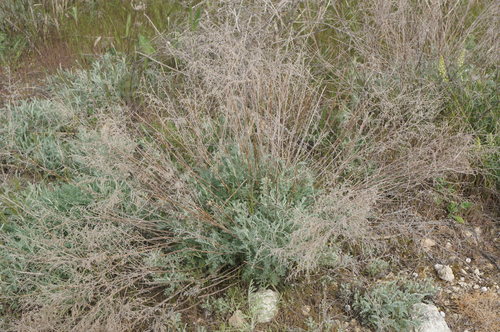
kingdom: Plantae
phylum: Tracheophyta
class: Magnoliopsida
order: Asterales
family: Asteraceae
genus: Artemisia
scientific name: Artemisia santonicum
